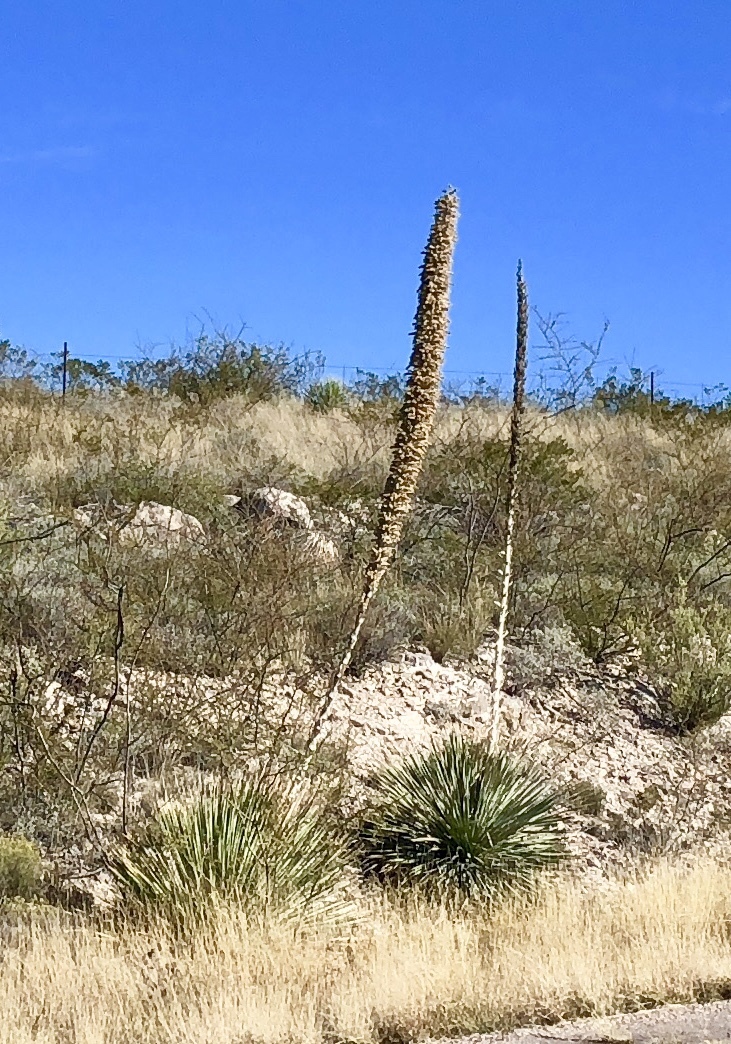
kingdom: Plantae
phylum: Tracheophyta
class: Liliopsida
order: Asparagales
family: Asparagaceae
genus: Dasylirion
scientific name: Dasylirion wheeleri
